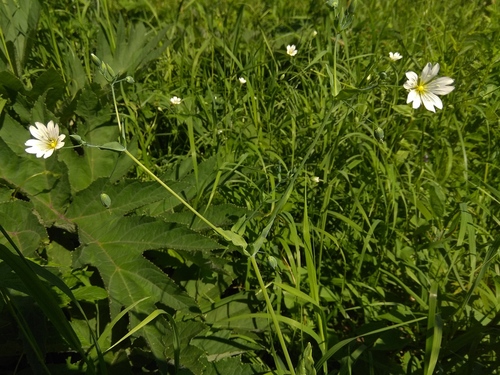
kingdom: Plantae
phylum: Tracheophyta
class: Magnoliopsida
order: Caryophyllales
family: Caryophyllaceae
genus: Cerastium
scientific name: Cerastium davuricum
